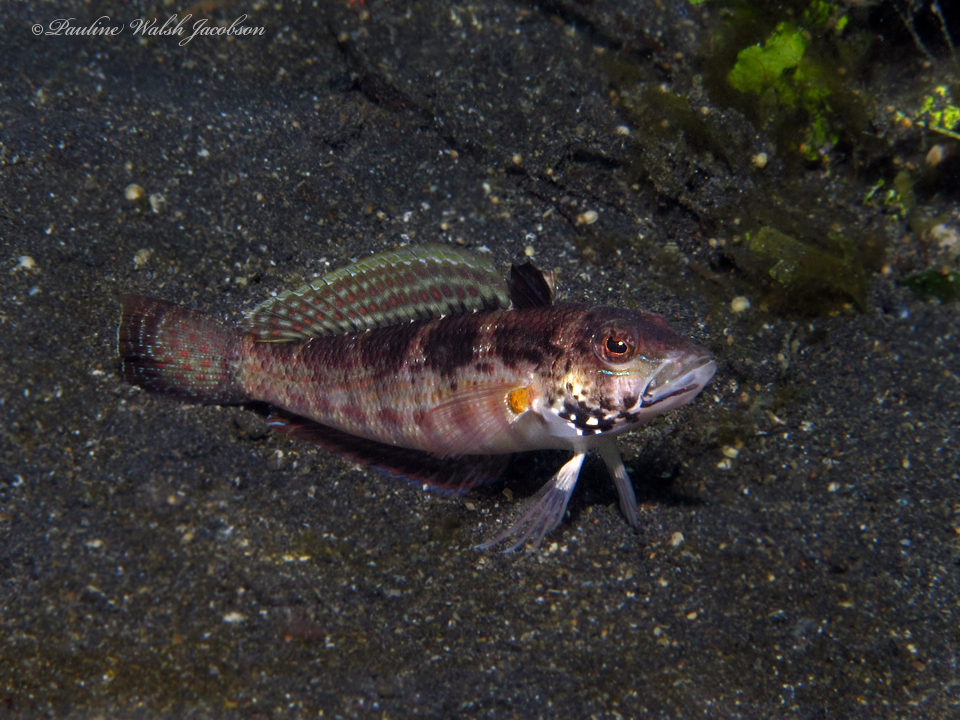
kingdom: Animalia
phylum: Chordata
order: Perciformes
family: Pinguipedidae
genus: Parapercis
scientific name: Parapercis snyderi
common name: U-mark sandperch
